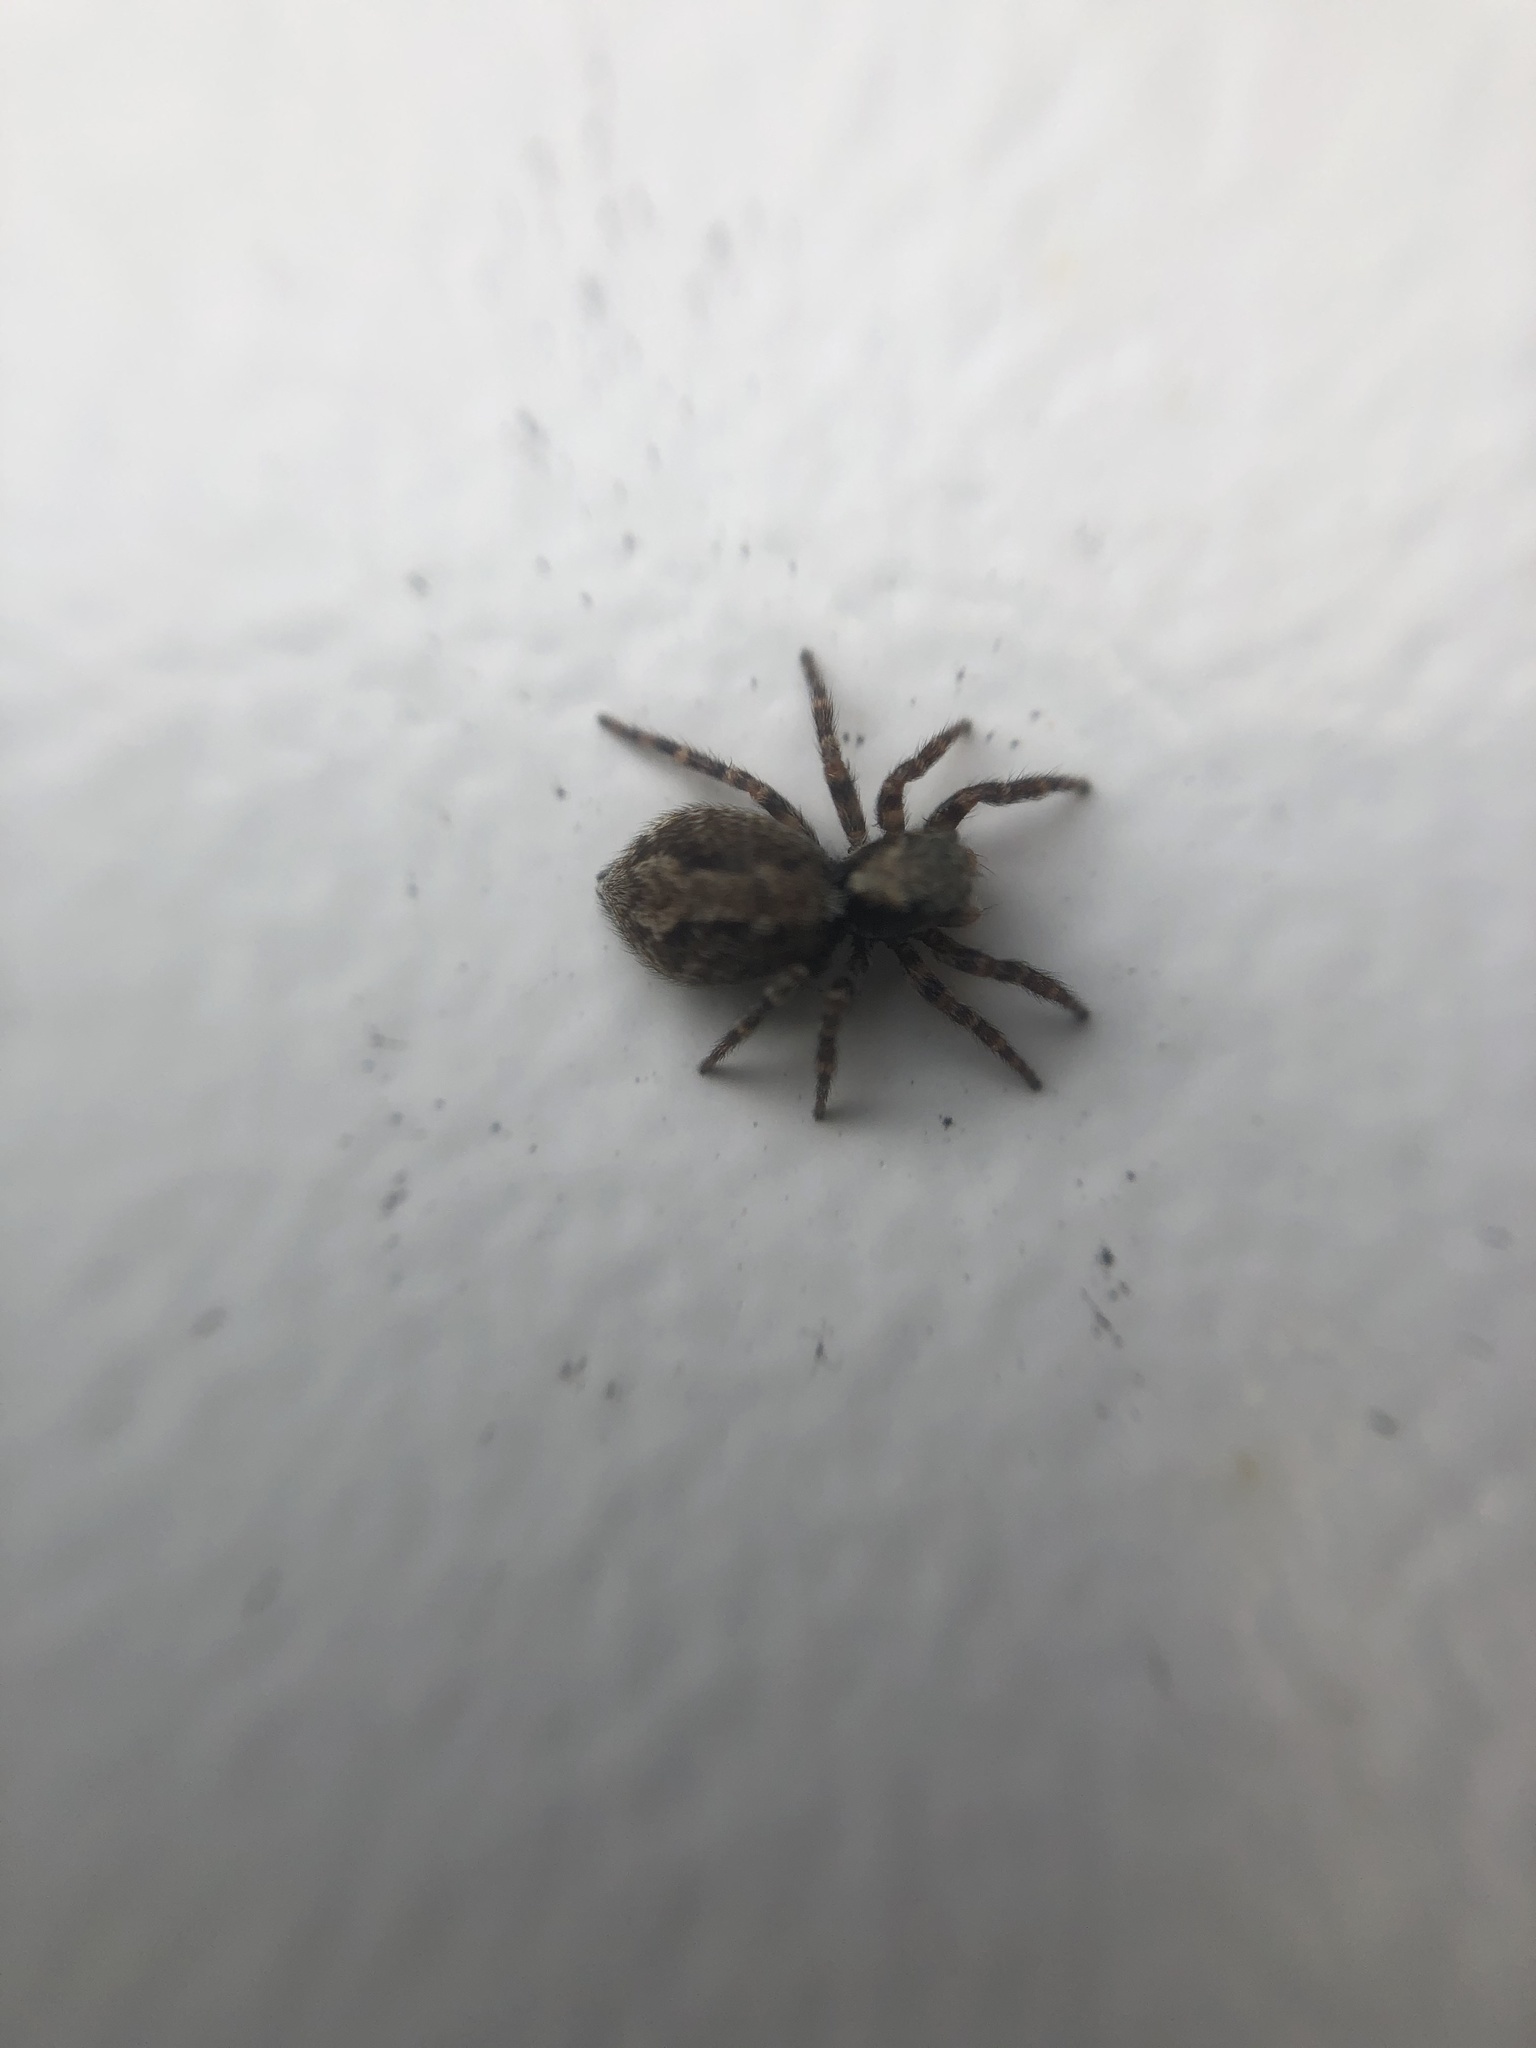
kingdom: Animalia
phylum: Arthropoda
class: Arachnida
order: Araneae
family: Salticidae
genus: Pseudeuophrys
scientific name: Pseudeuophrys lanigera
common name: Jumping spider
